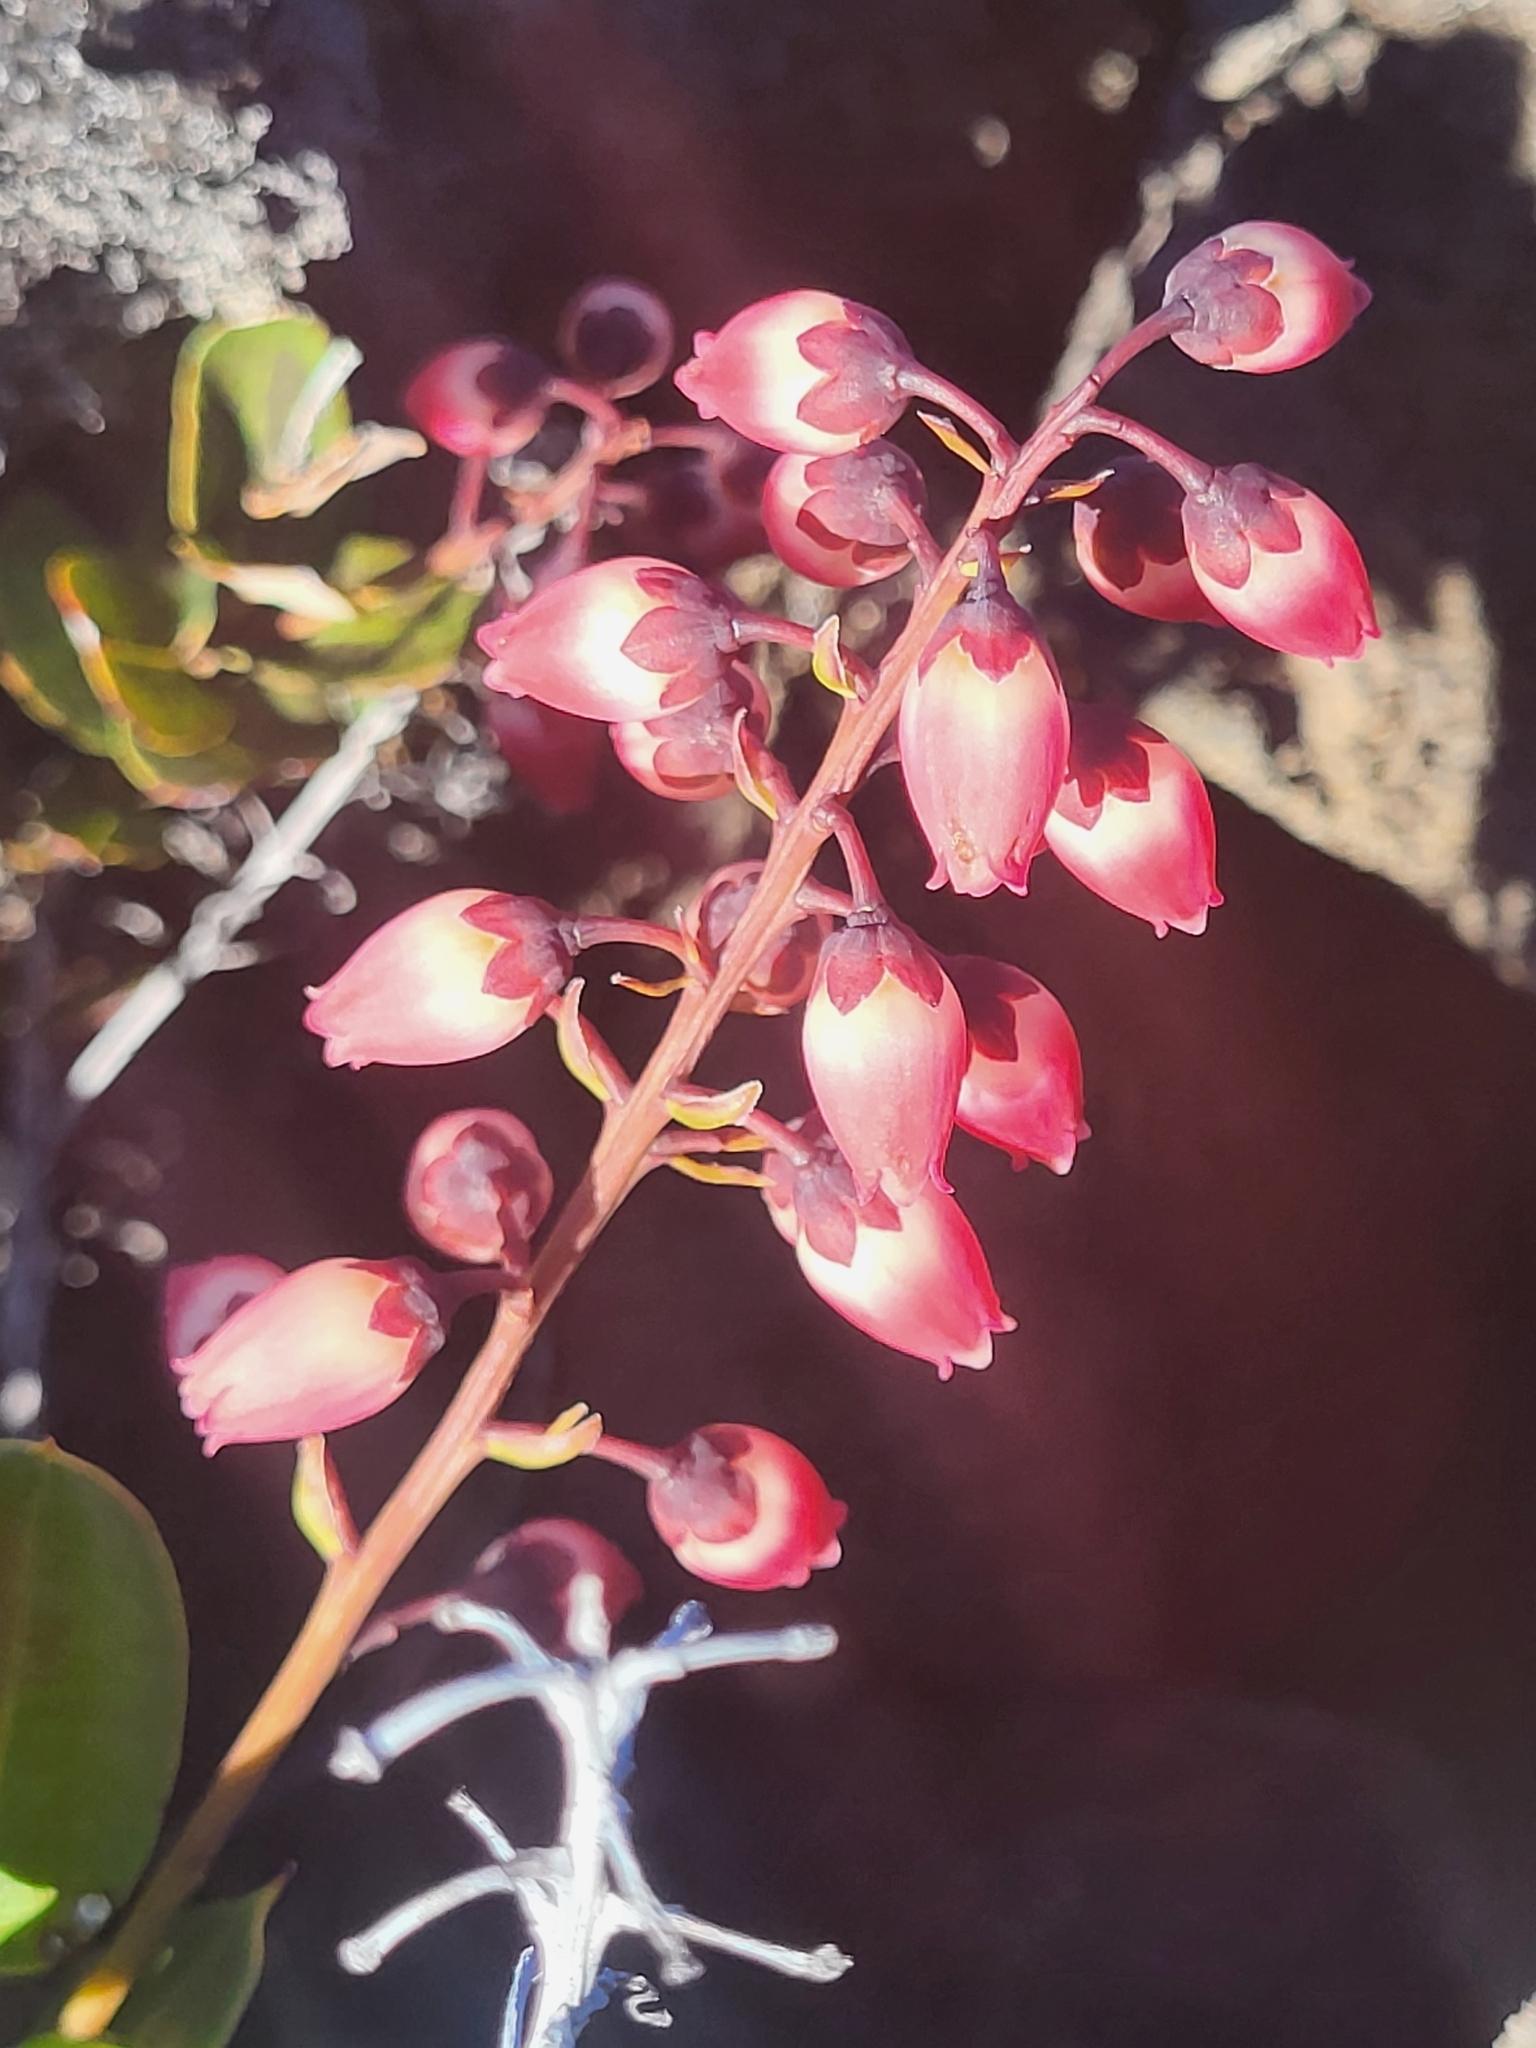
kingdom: Plantae
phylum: Tracheophyta
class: Magnoliopsida
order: Ericales
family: Ericaceae
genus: Agarista
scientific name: Agarista buxifolia
